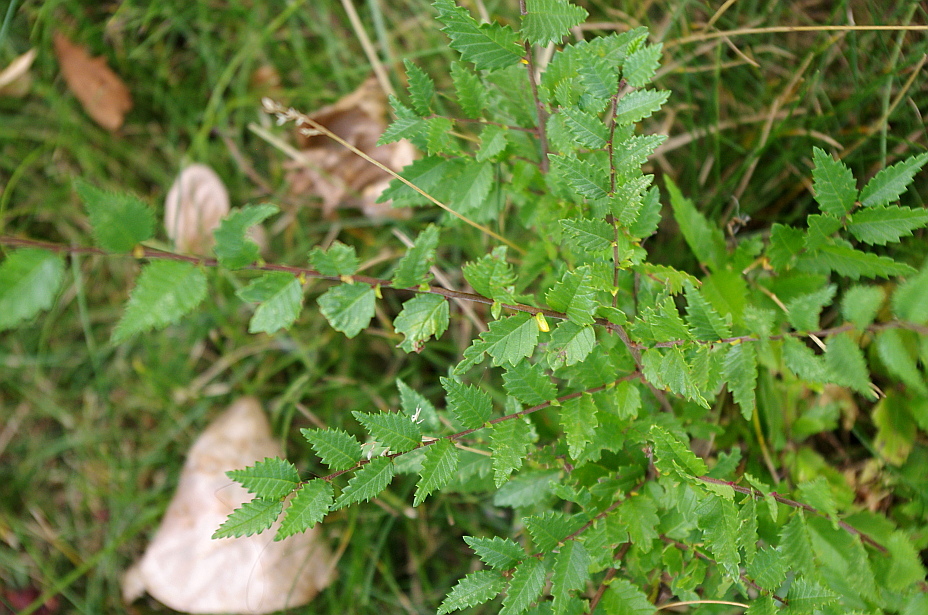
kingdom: Plantae
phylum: Tracheophyta
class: Magnoliopsida
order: Rosales
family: Ulmaceae
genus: Ulmus
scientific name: Ulmus pumila
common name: Siberian elm
